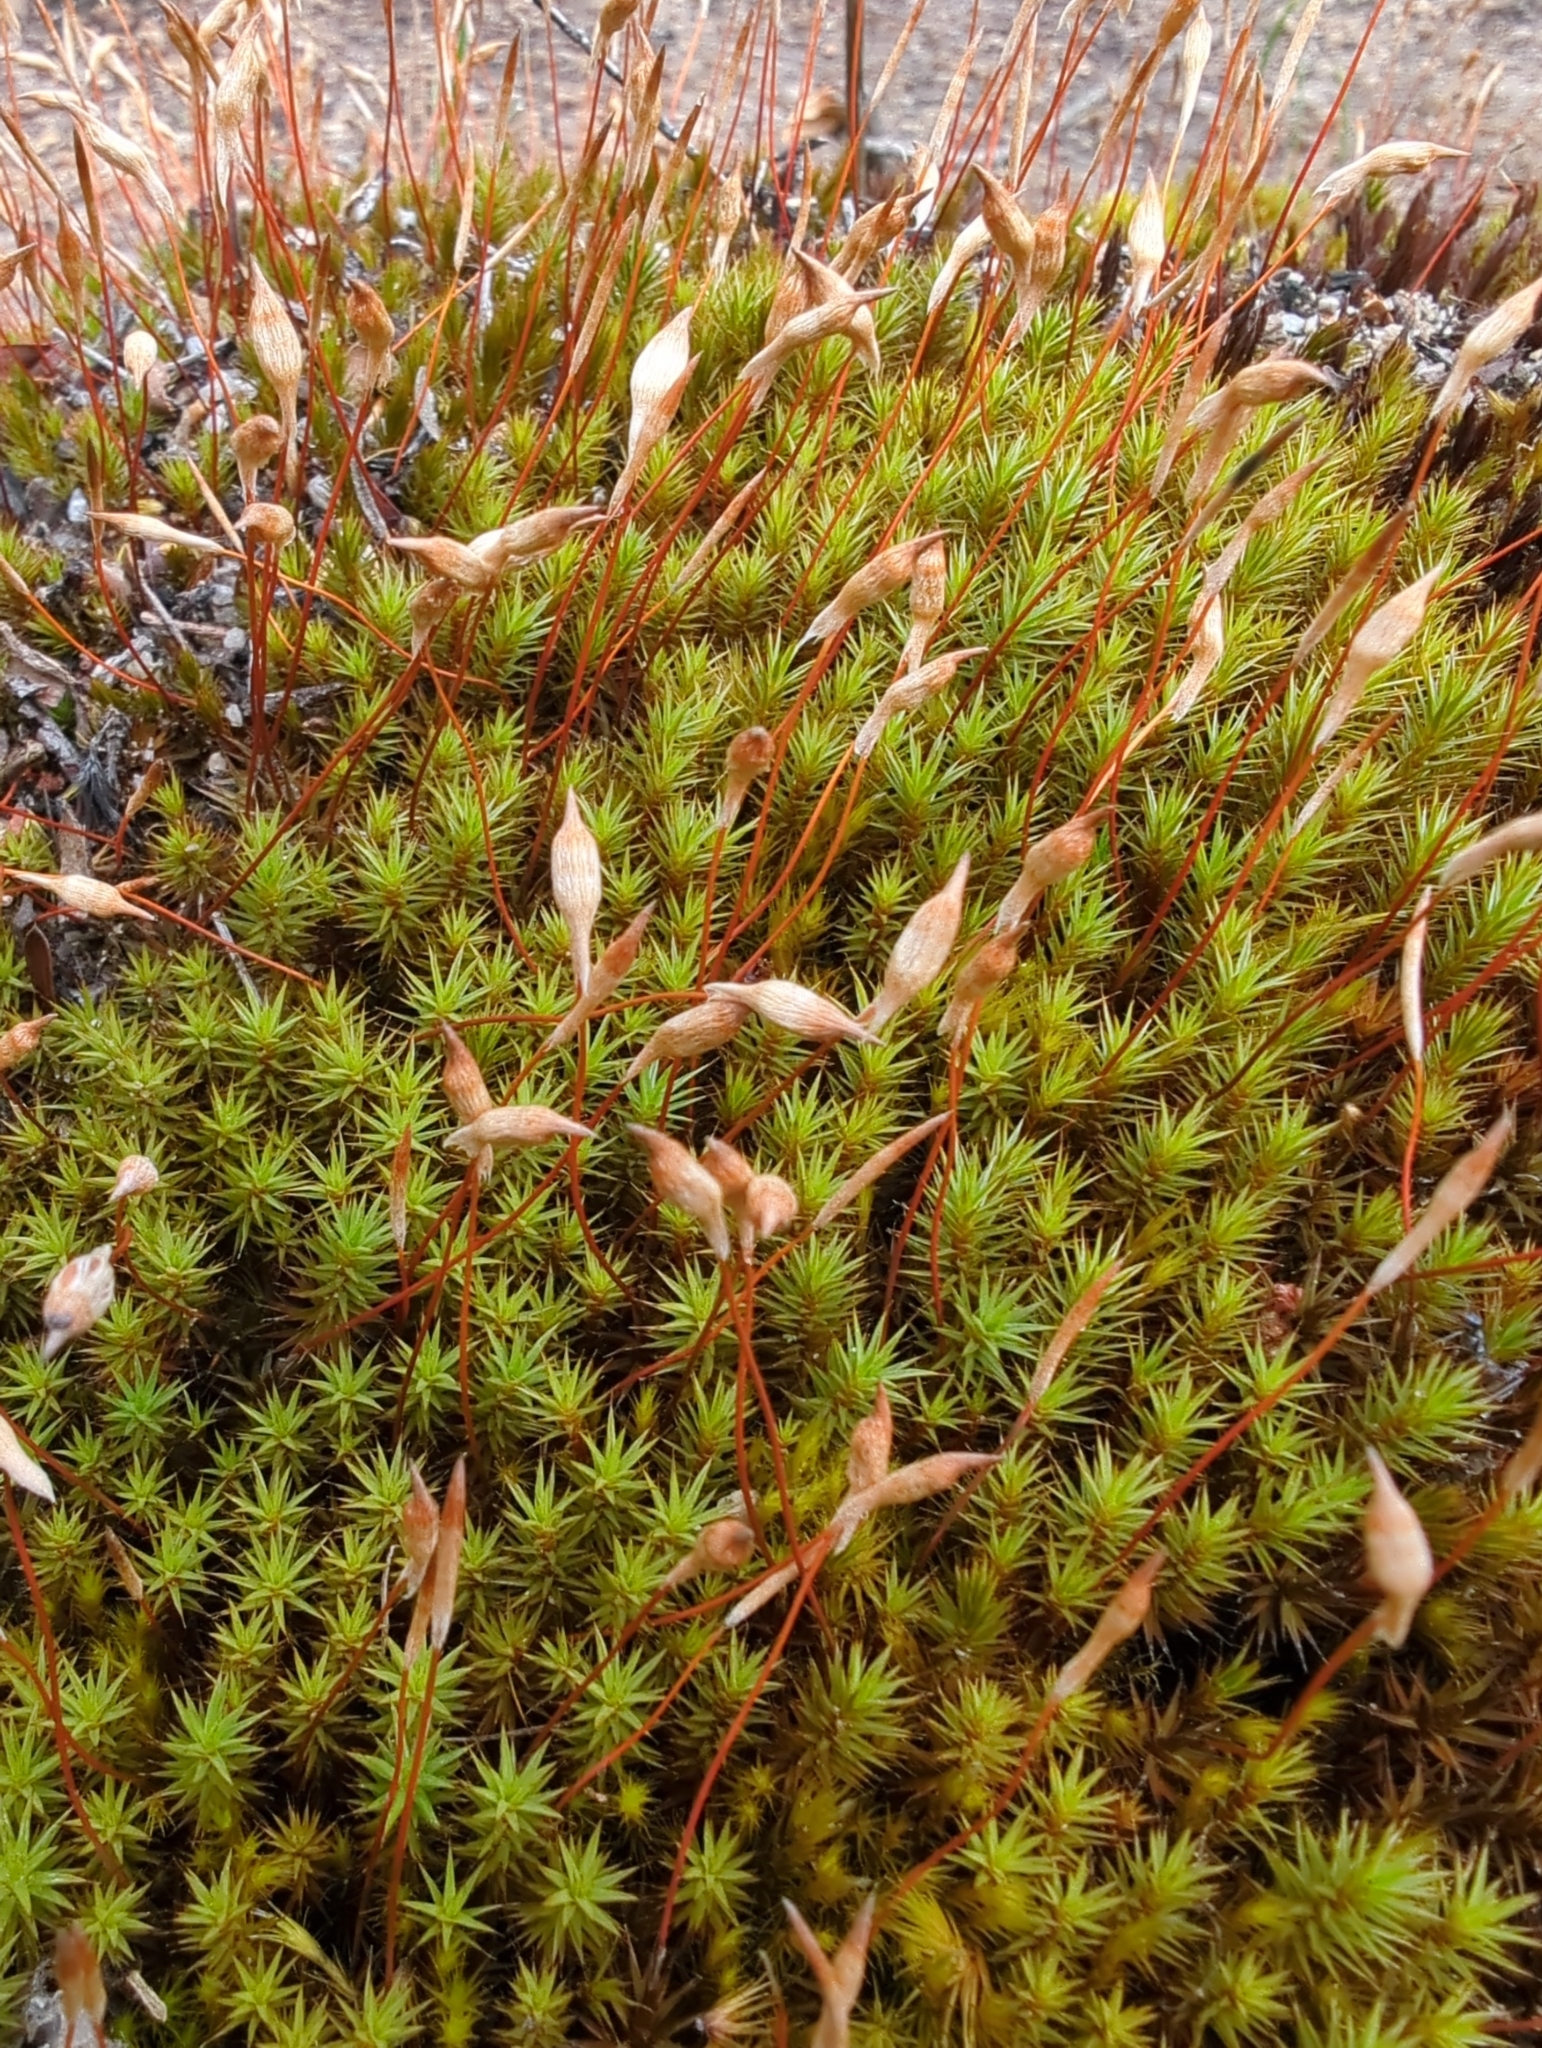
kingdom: Plantae
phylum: Bryophyta
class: Polytrichopsida
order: Polytrichales
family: Polytrichaceae
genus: Polytrichum
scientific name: Polytrichum juniperinum
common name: Juniper haircap moss
